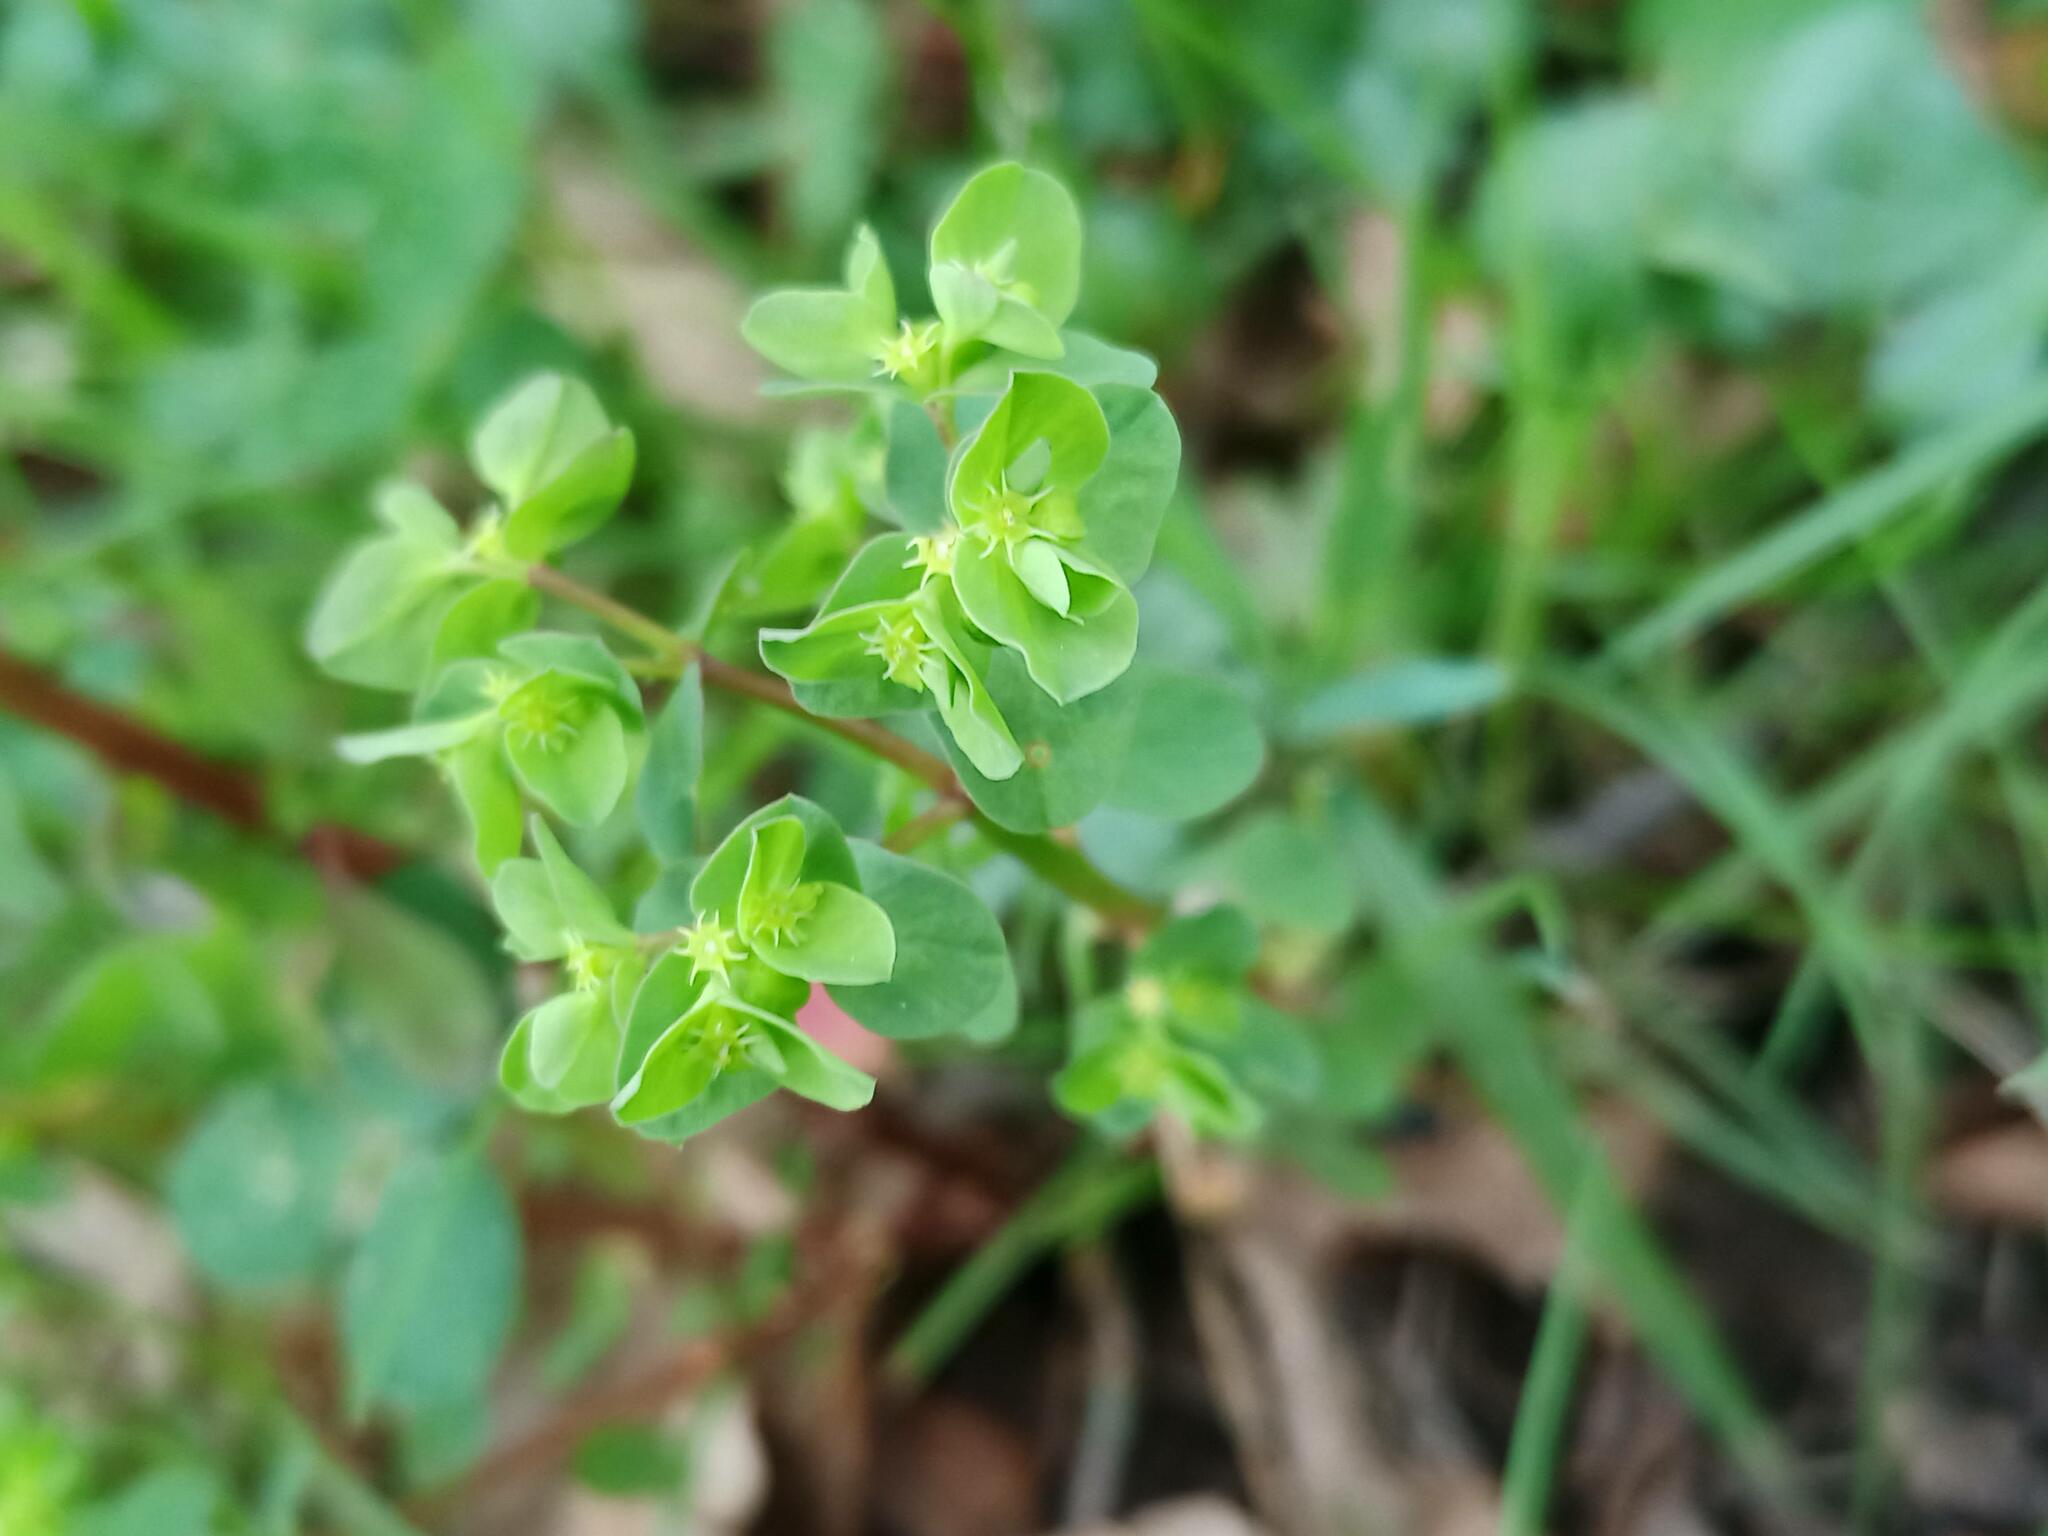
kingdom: Plantae
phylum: Tracheophyta
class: Magnoliopsida
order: Malpighiales
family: Euphorbiaceae
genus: Euphorbia
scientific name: Euphorbia peplus
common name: Petty spurge
